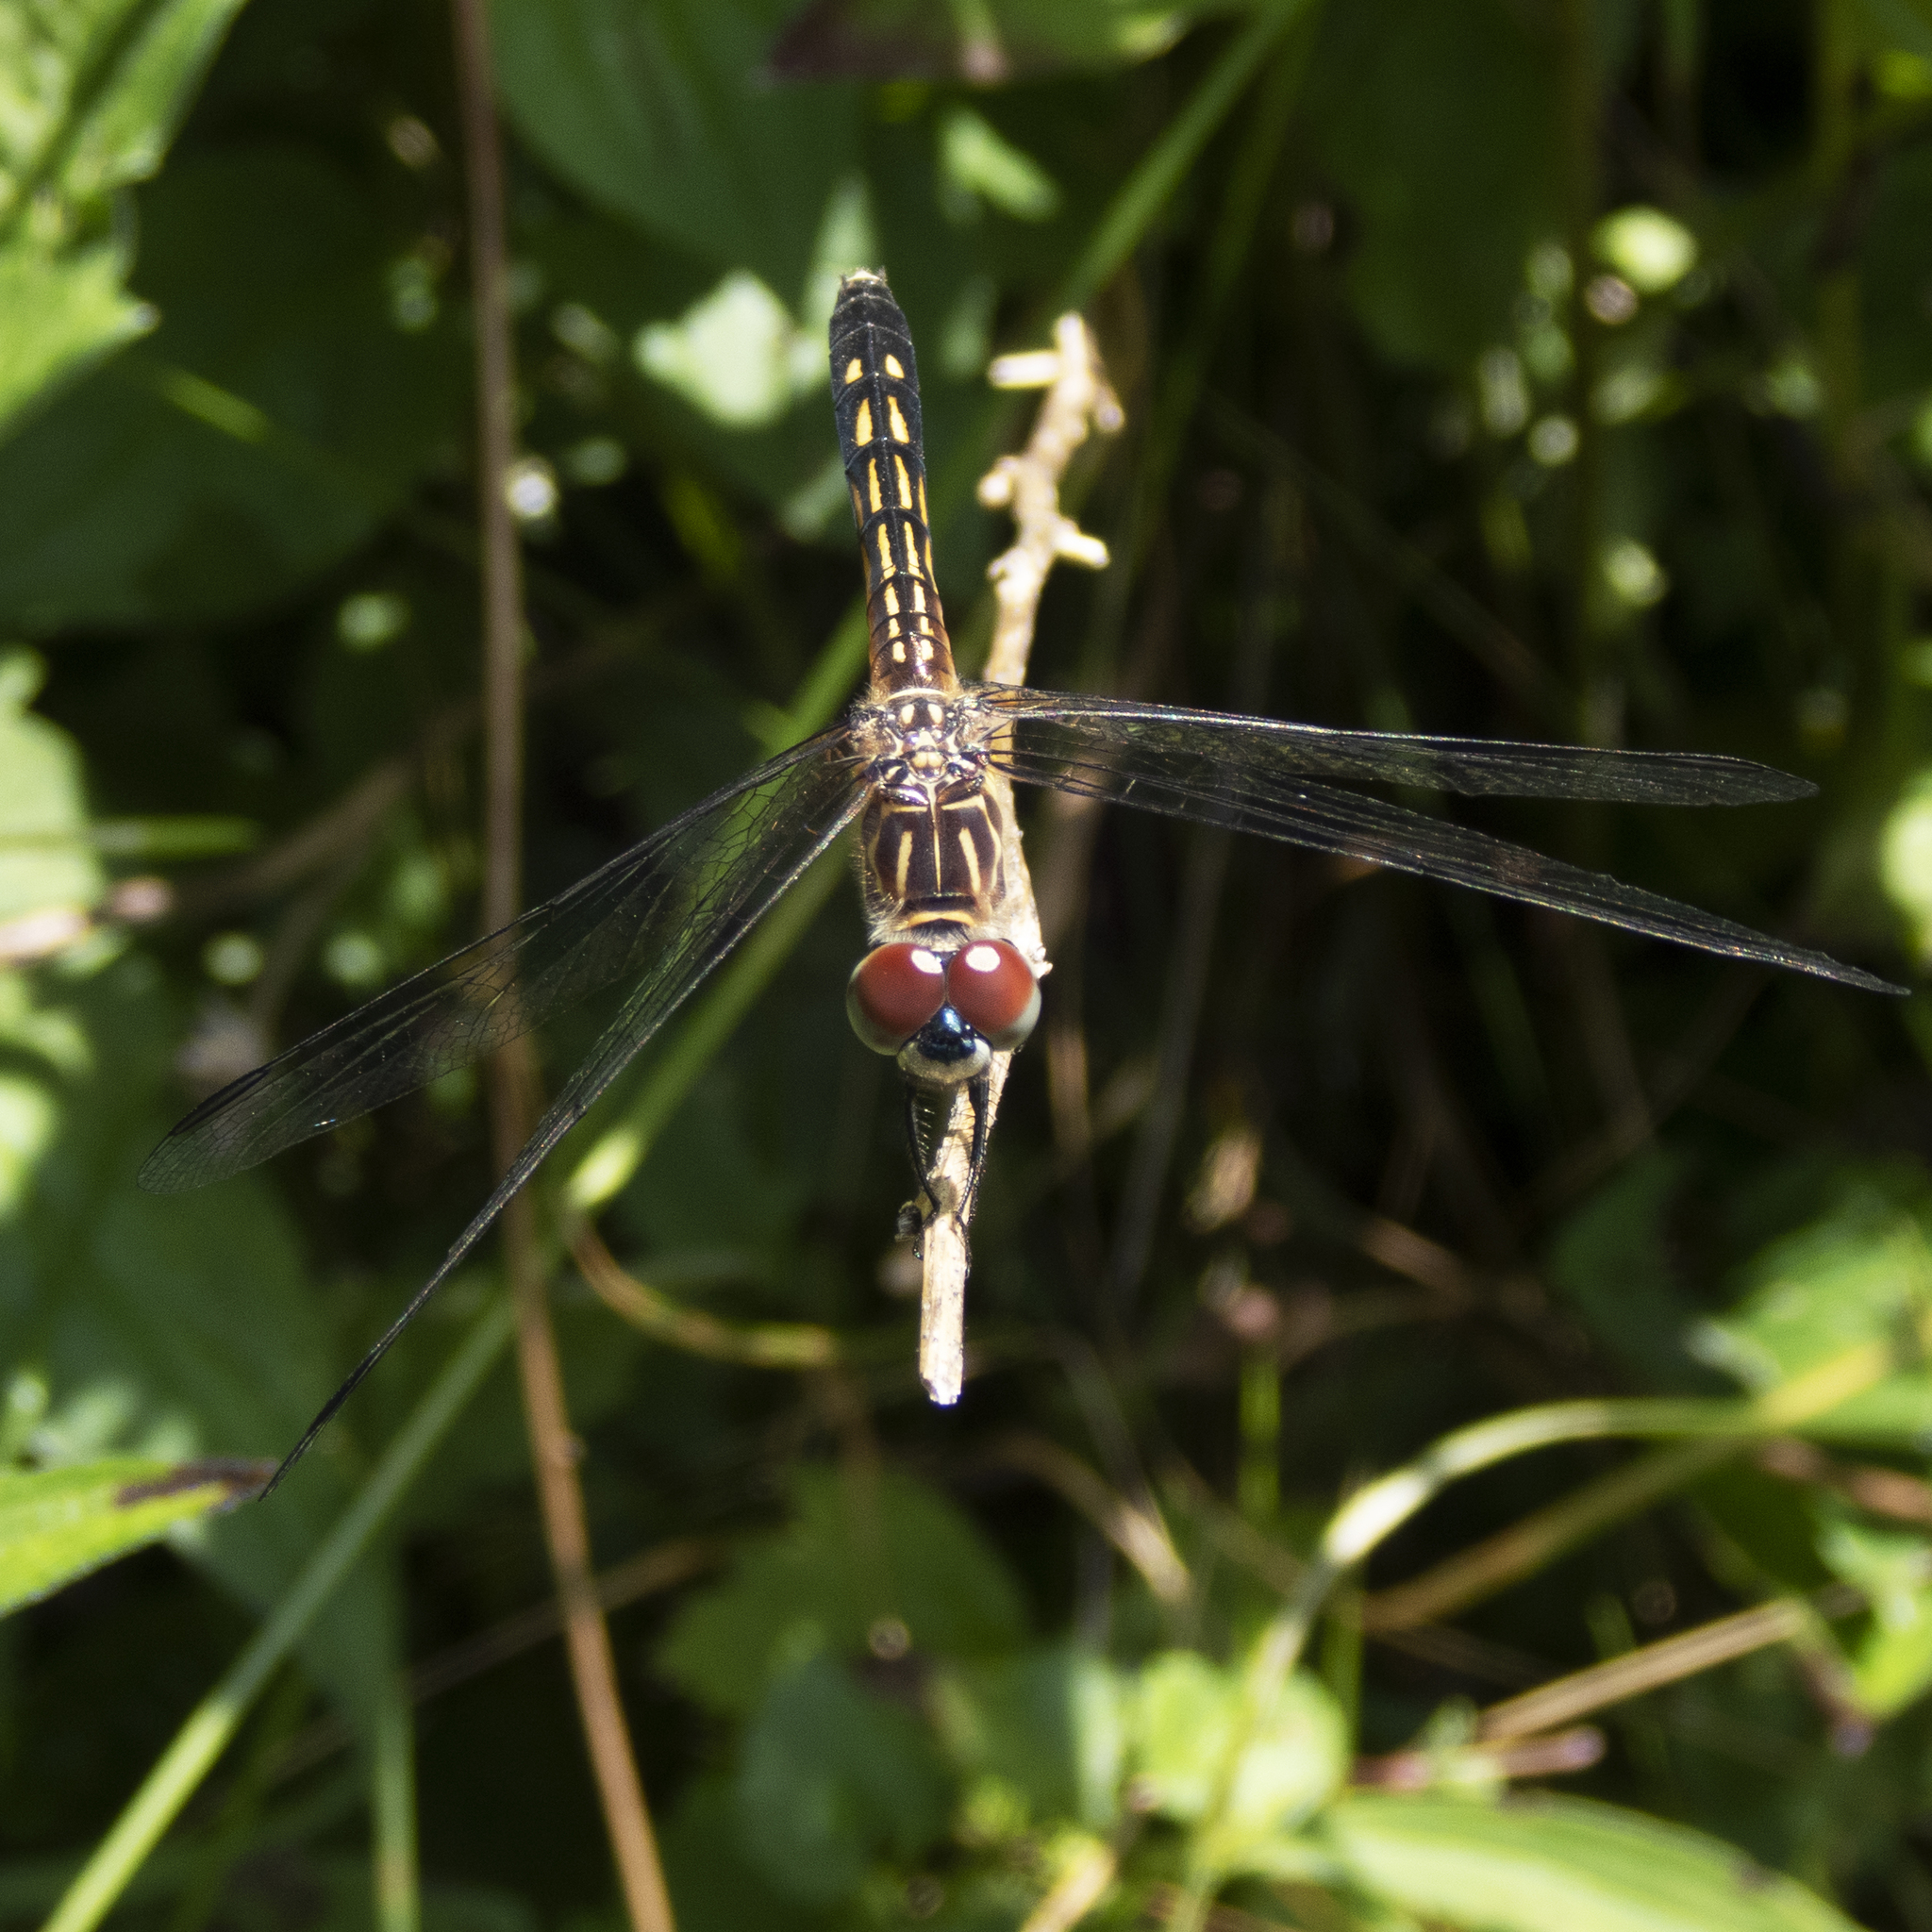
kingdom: Animalia
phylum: Arthropoda
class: Insecta
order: Odonata
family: Libellulidae
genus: Pachydiplax
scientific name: Pachydiplax longipennis
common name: Blue dasher
